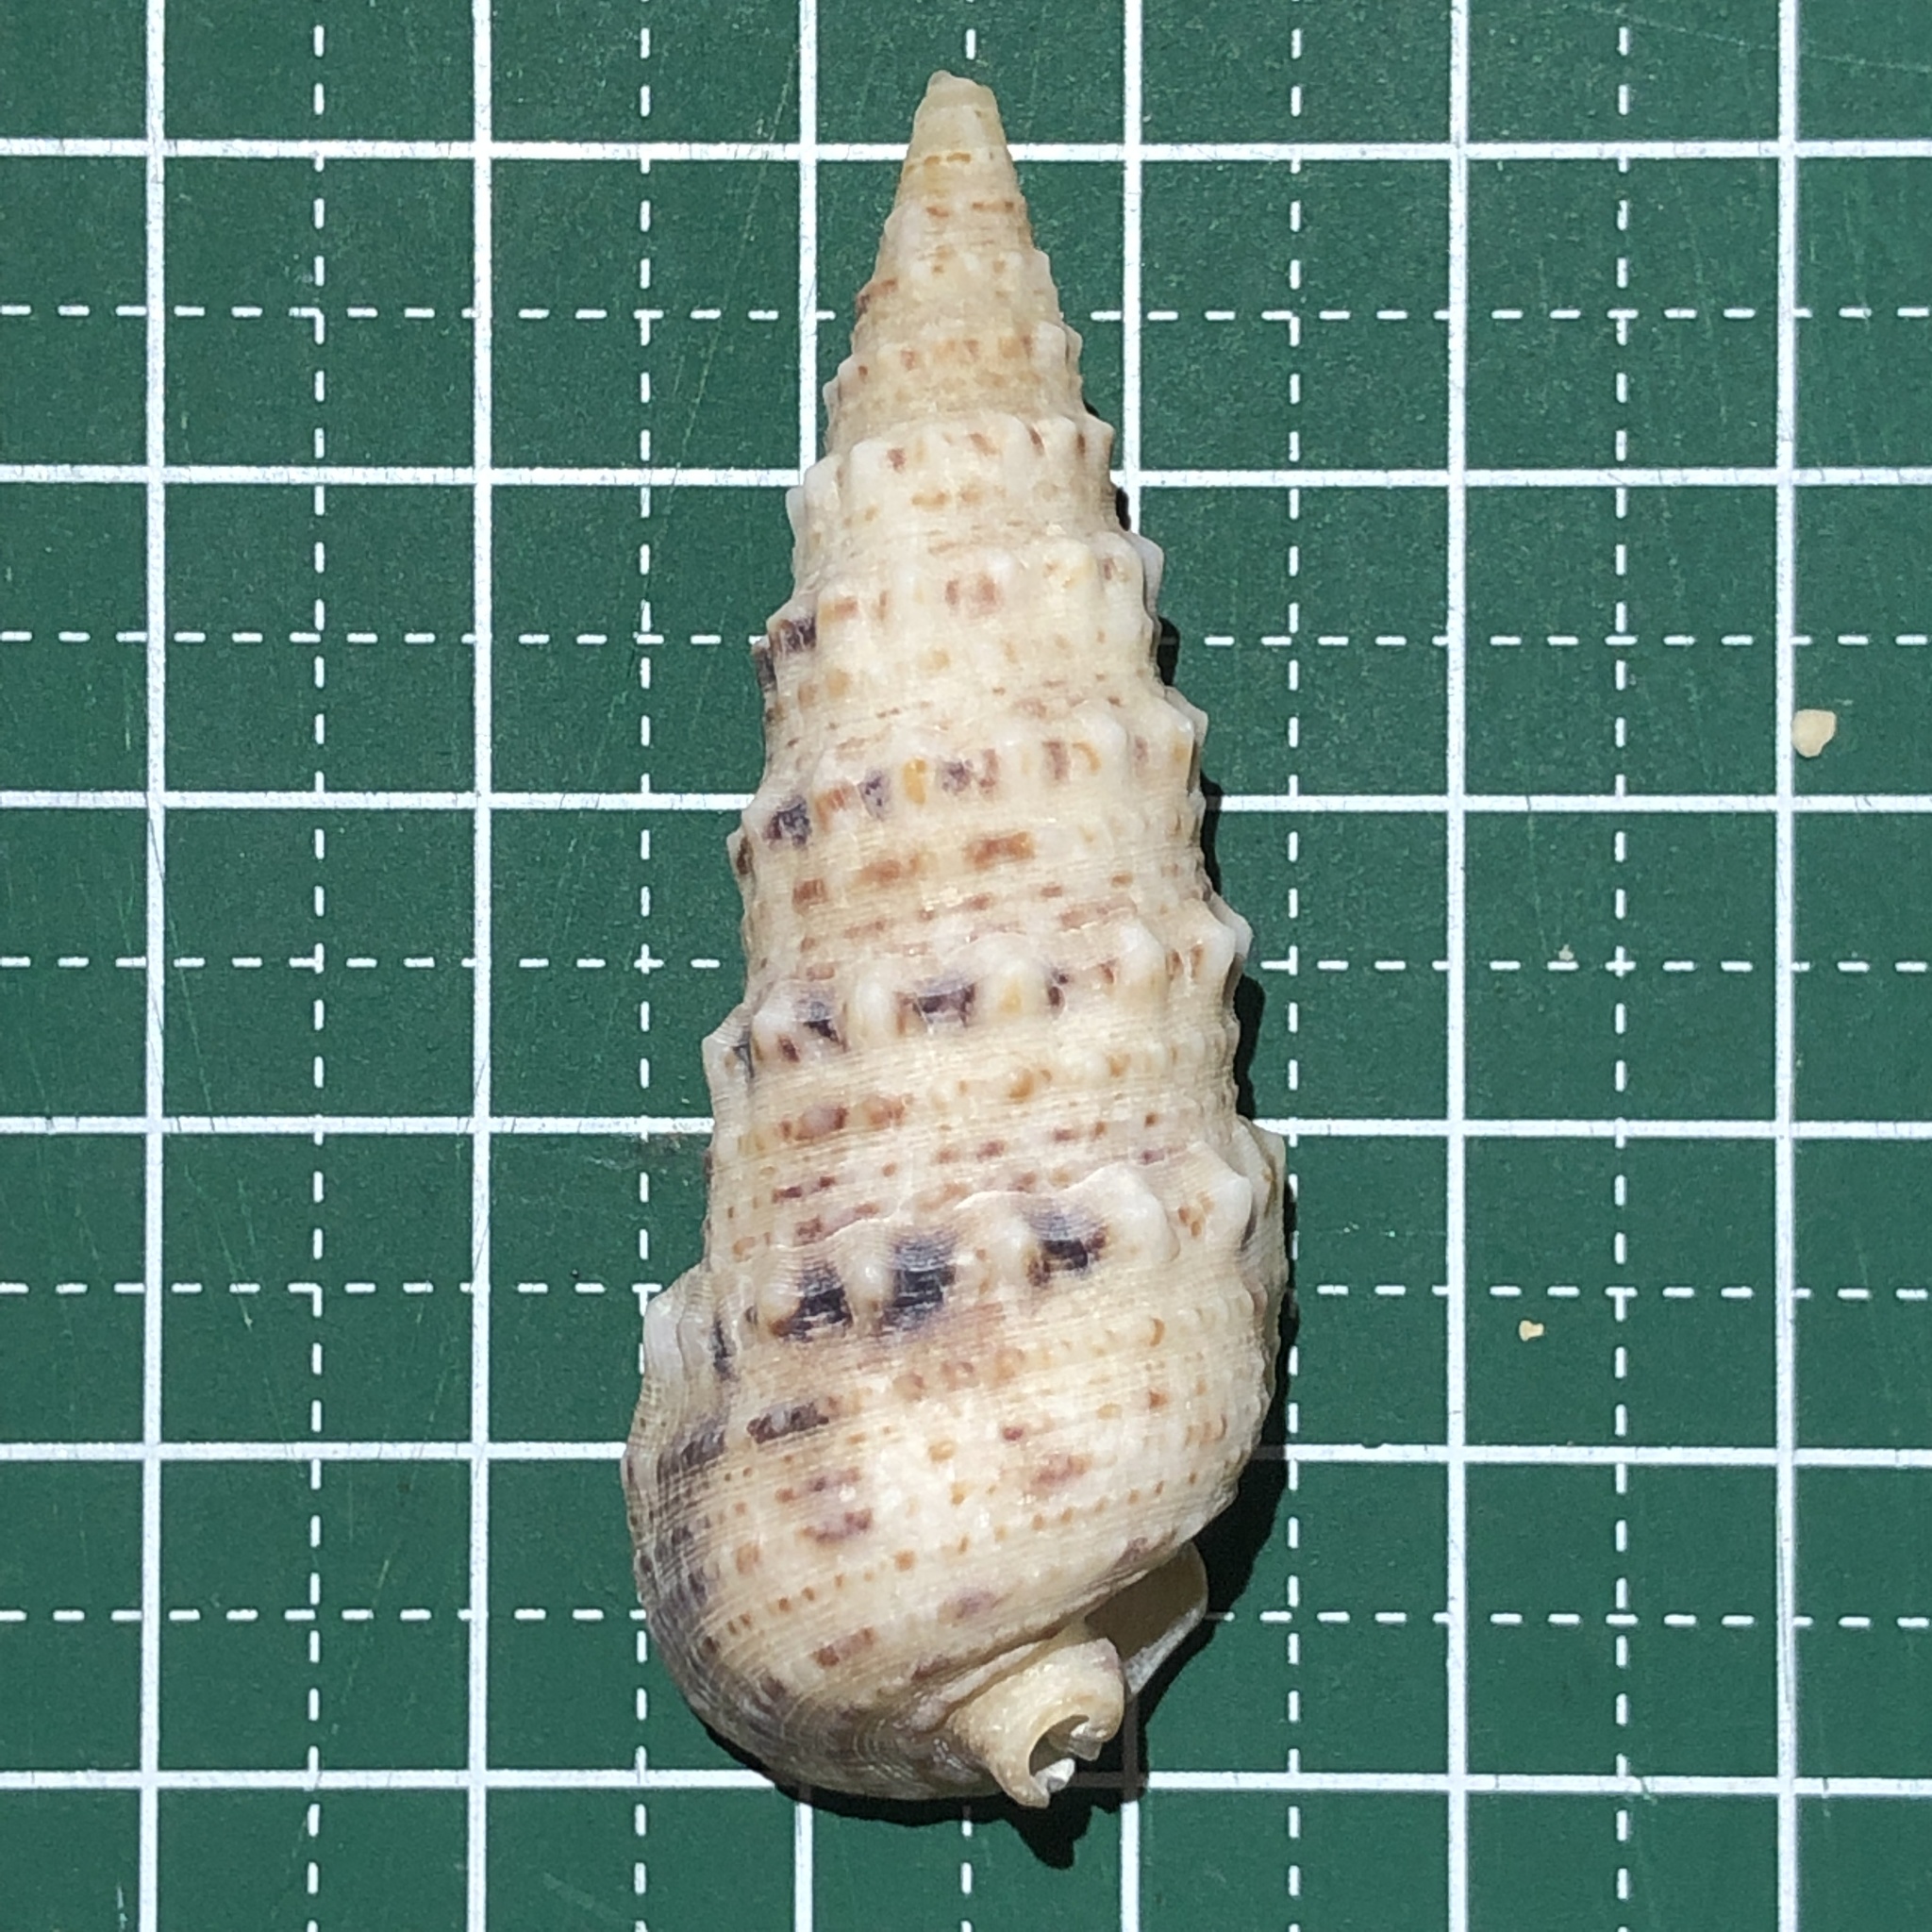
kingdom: Animalia
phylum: Mollusca
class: Gastropoda
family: Cerithiidae
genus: Rhinoclavis
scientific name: Rhinoclavis sinensis
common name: Knobbled horn shell
